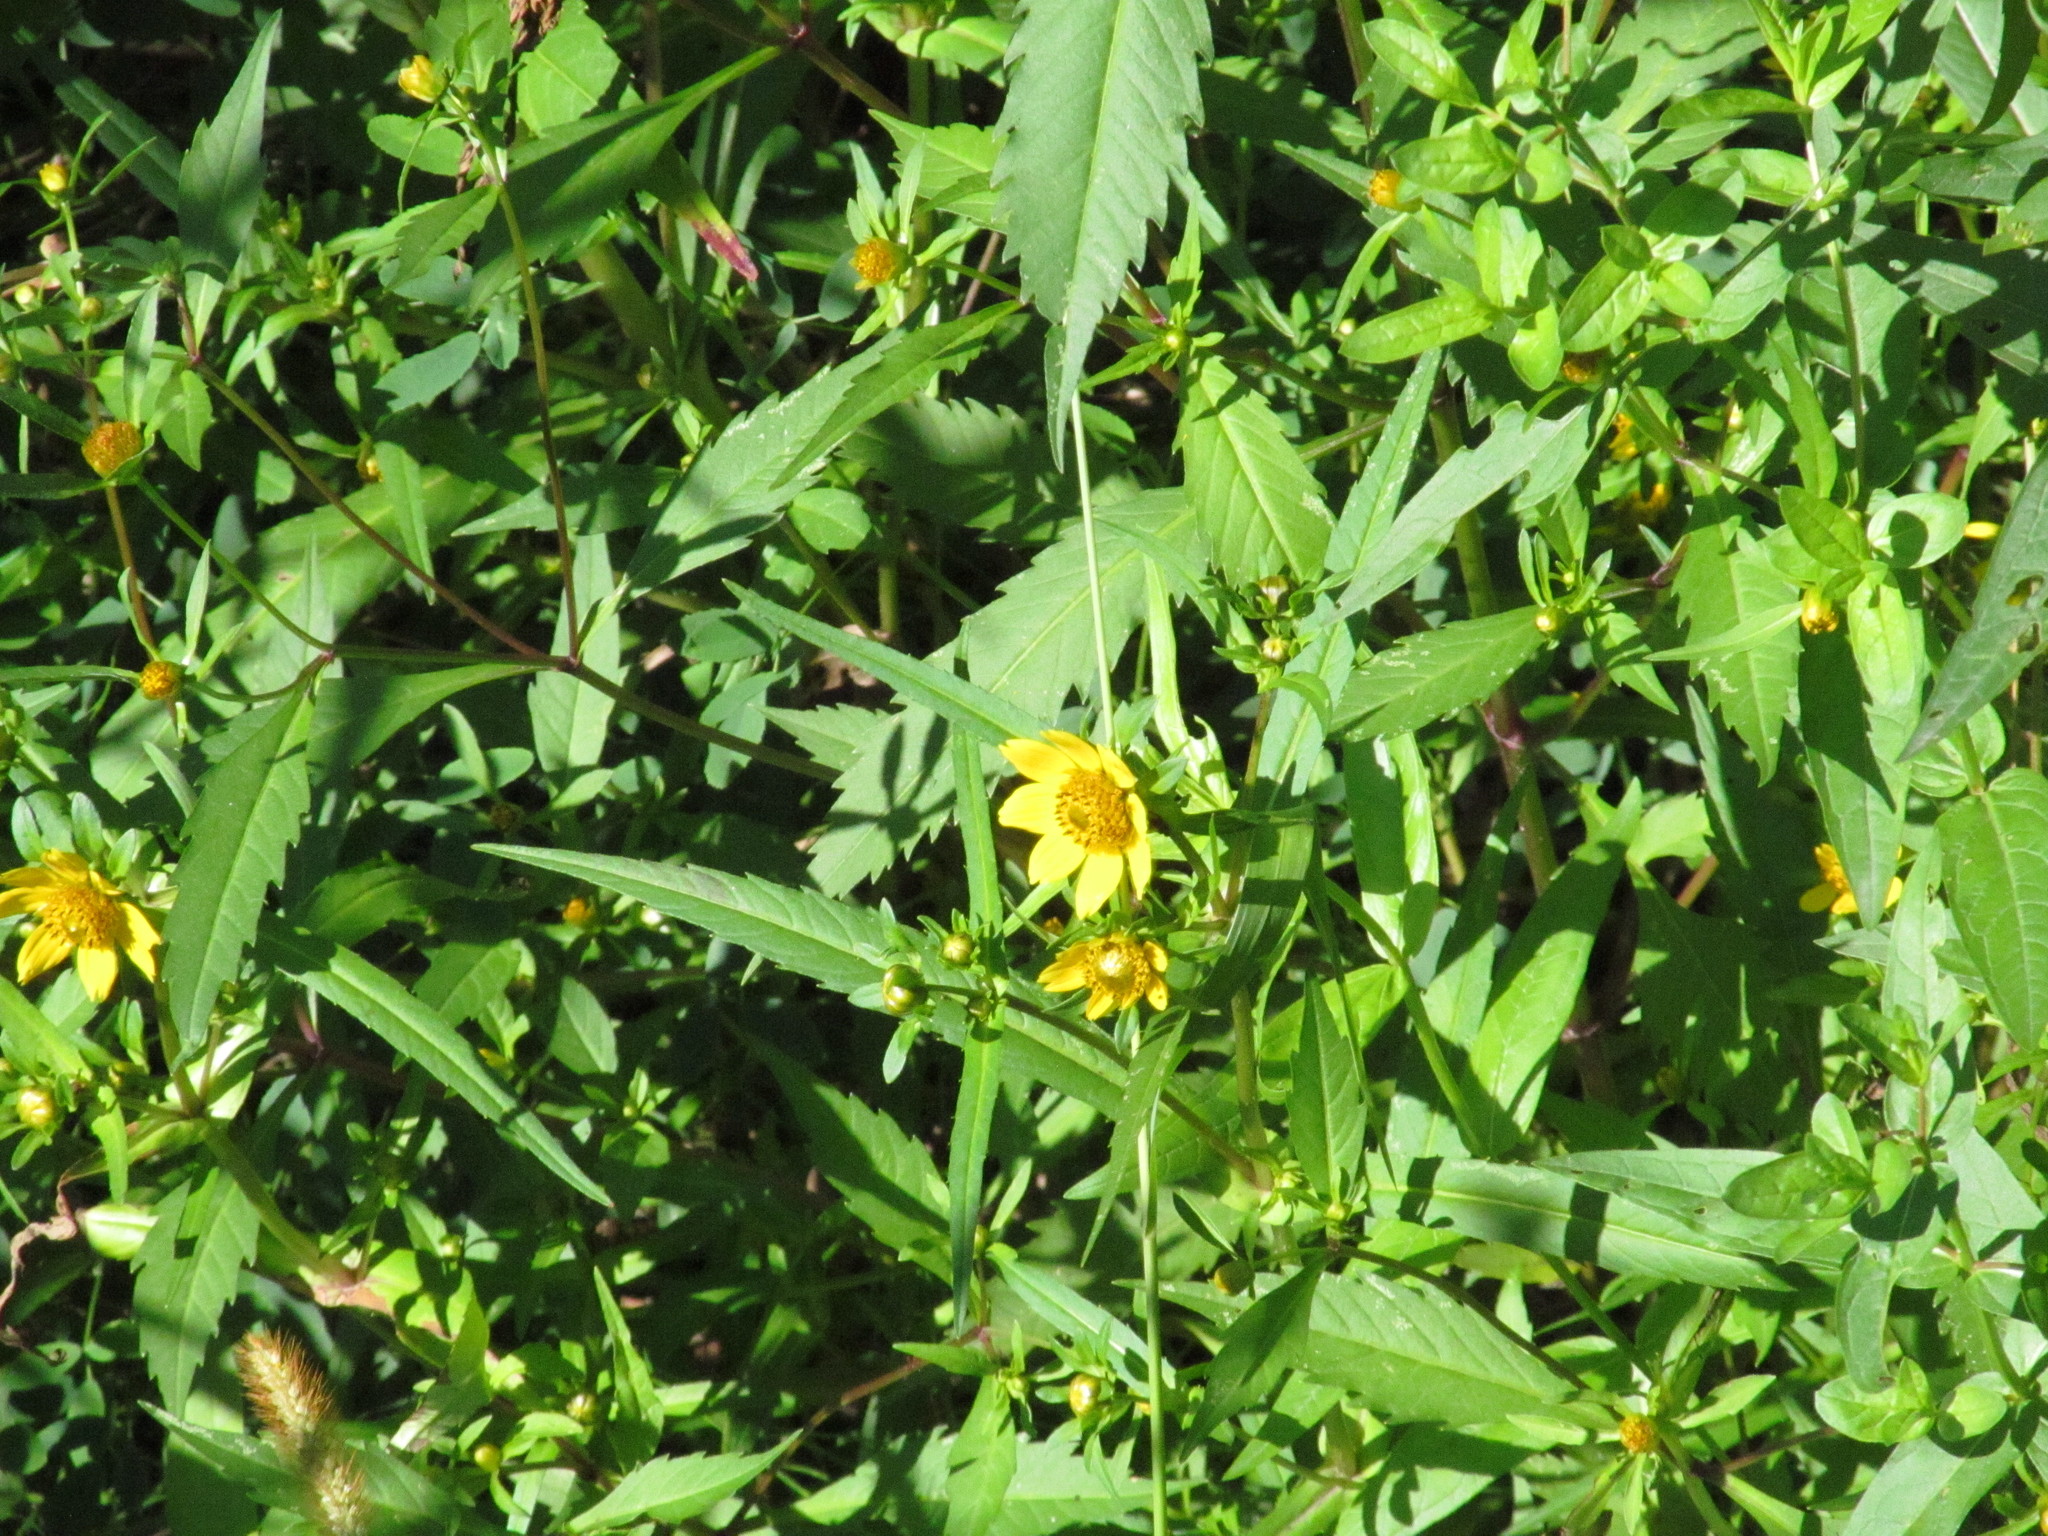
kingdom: Plantae
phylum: Tracheophyta
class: Magnoliopsida
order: Asterales
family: Asteraceae
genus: Bidens
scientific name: Bidens cernua
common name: Nodding bur-marigold
